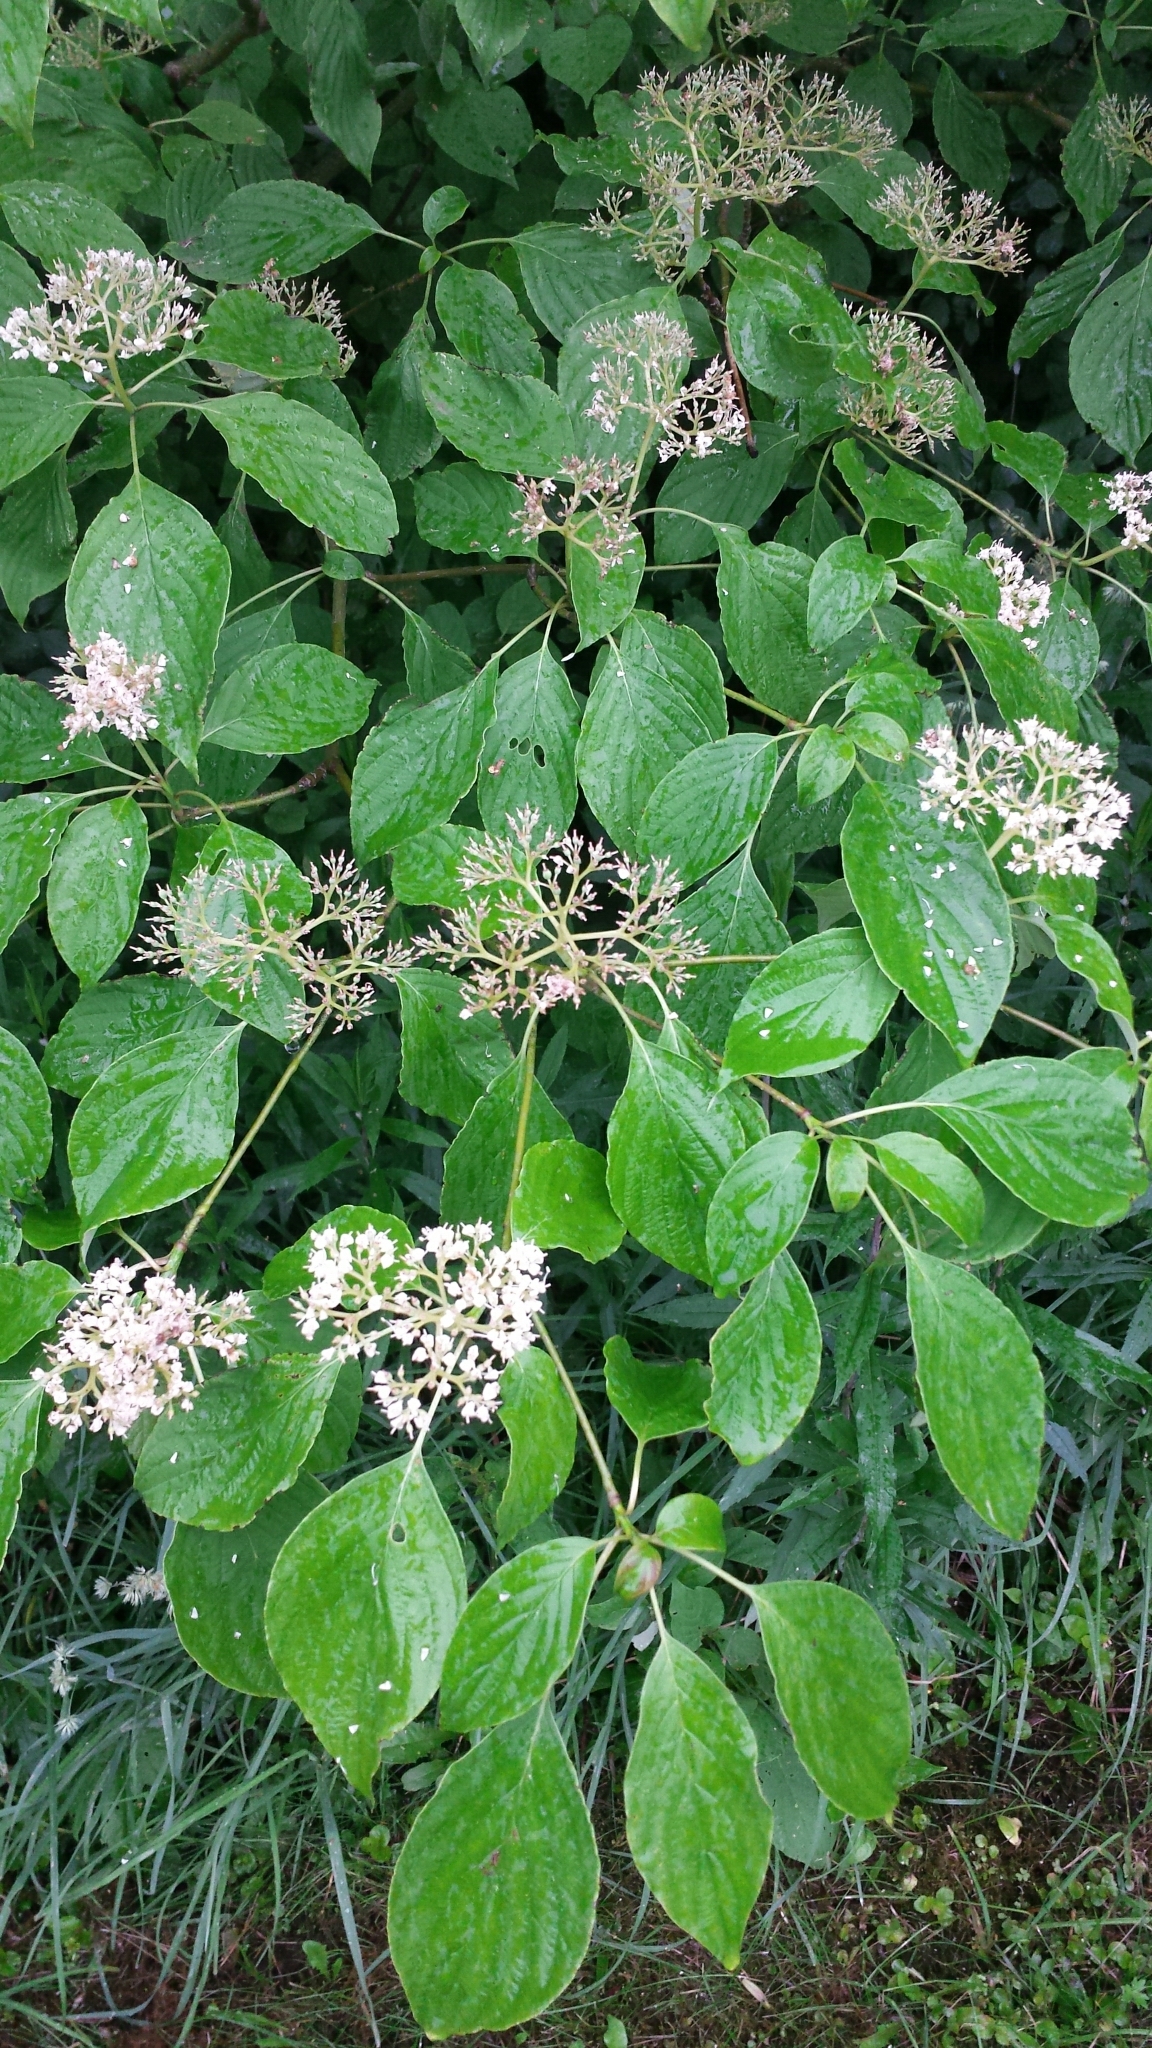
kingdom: Plantae
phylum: Tracheophyta
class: Magnoliopsida
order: Cornales
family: Cornaceae
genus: Cornus
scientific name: Cornus alternifolia
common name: Pagoda dogwood
